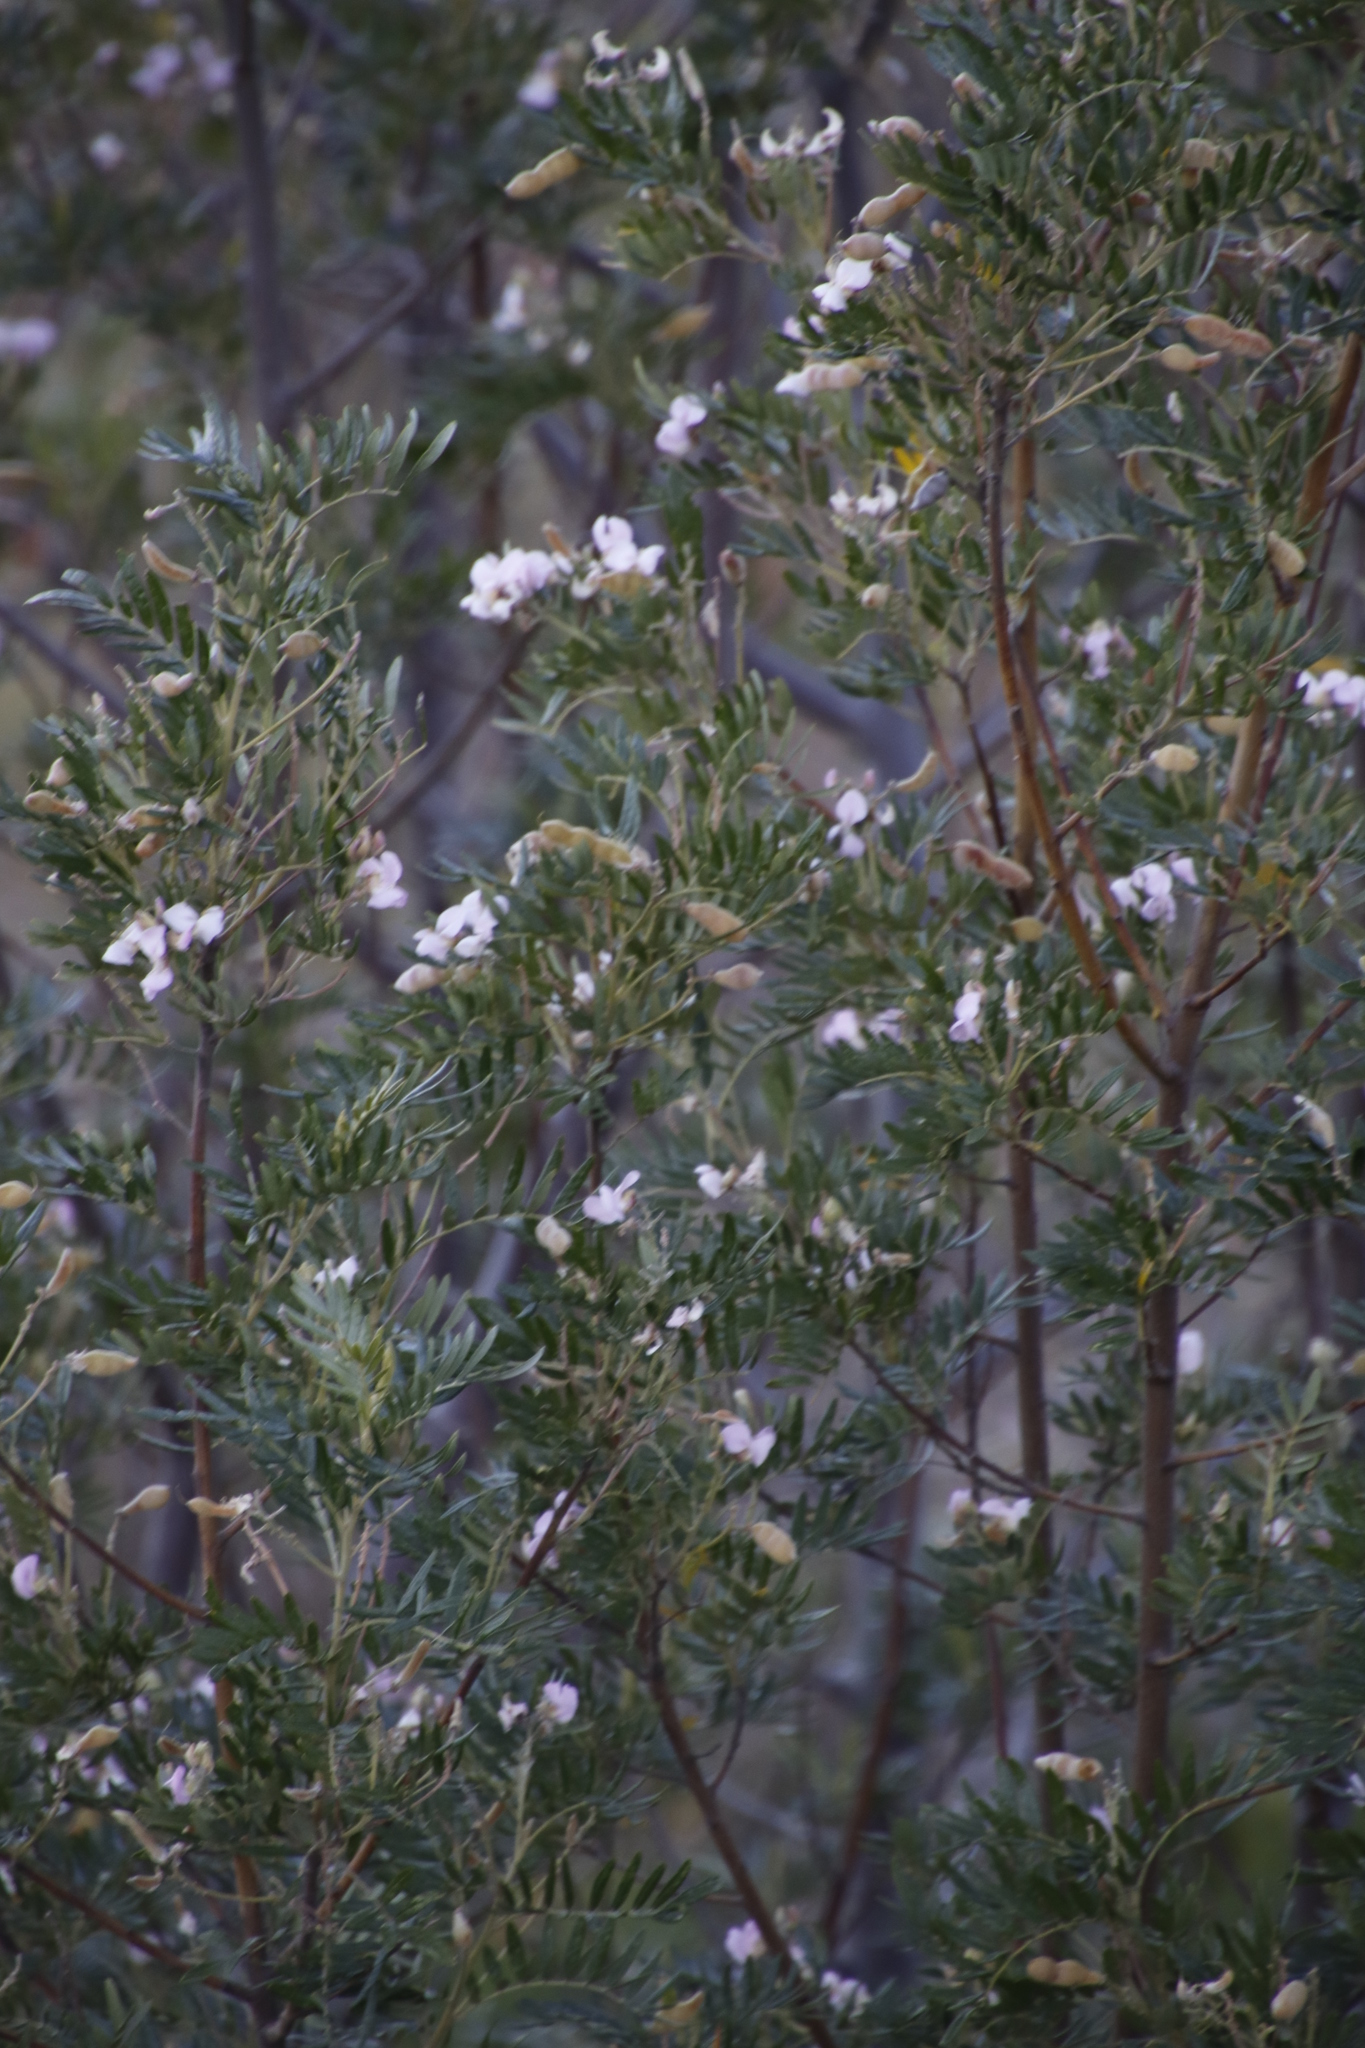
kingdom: Plantae
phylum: Tracheophyta
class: Magnoliopsida
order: Fabales
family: Fabaceae
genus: Virgilia
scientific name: Virgilia oroboides
